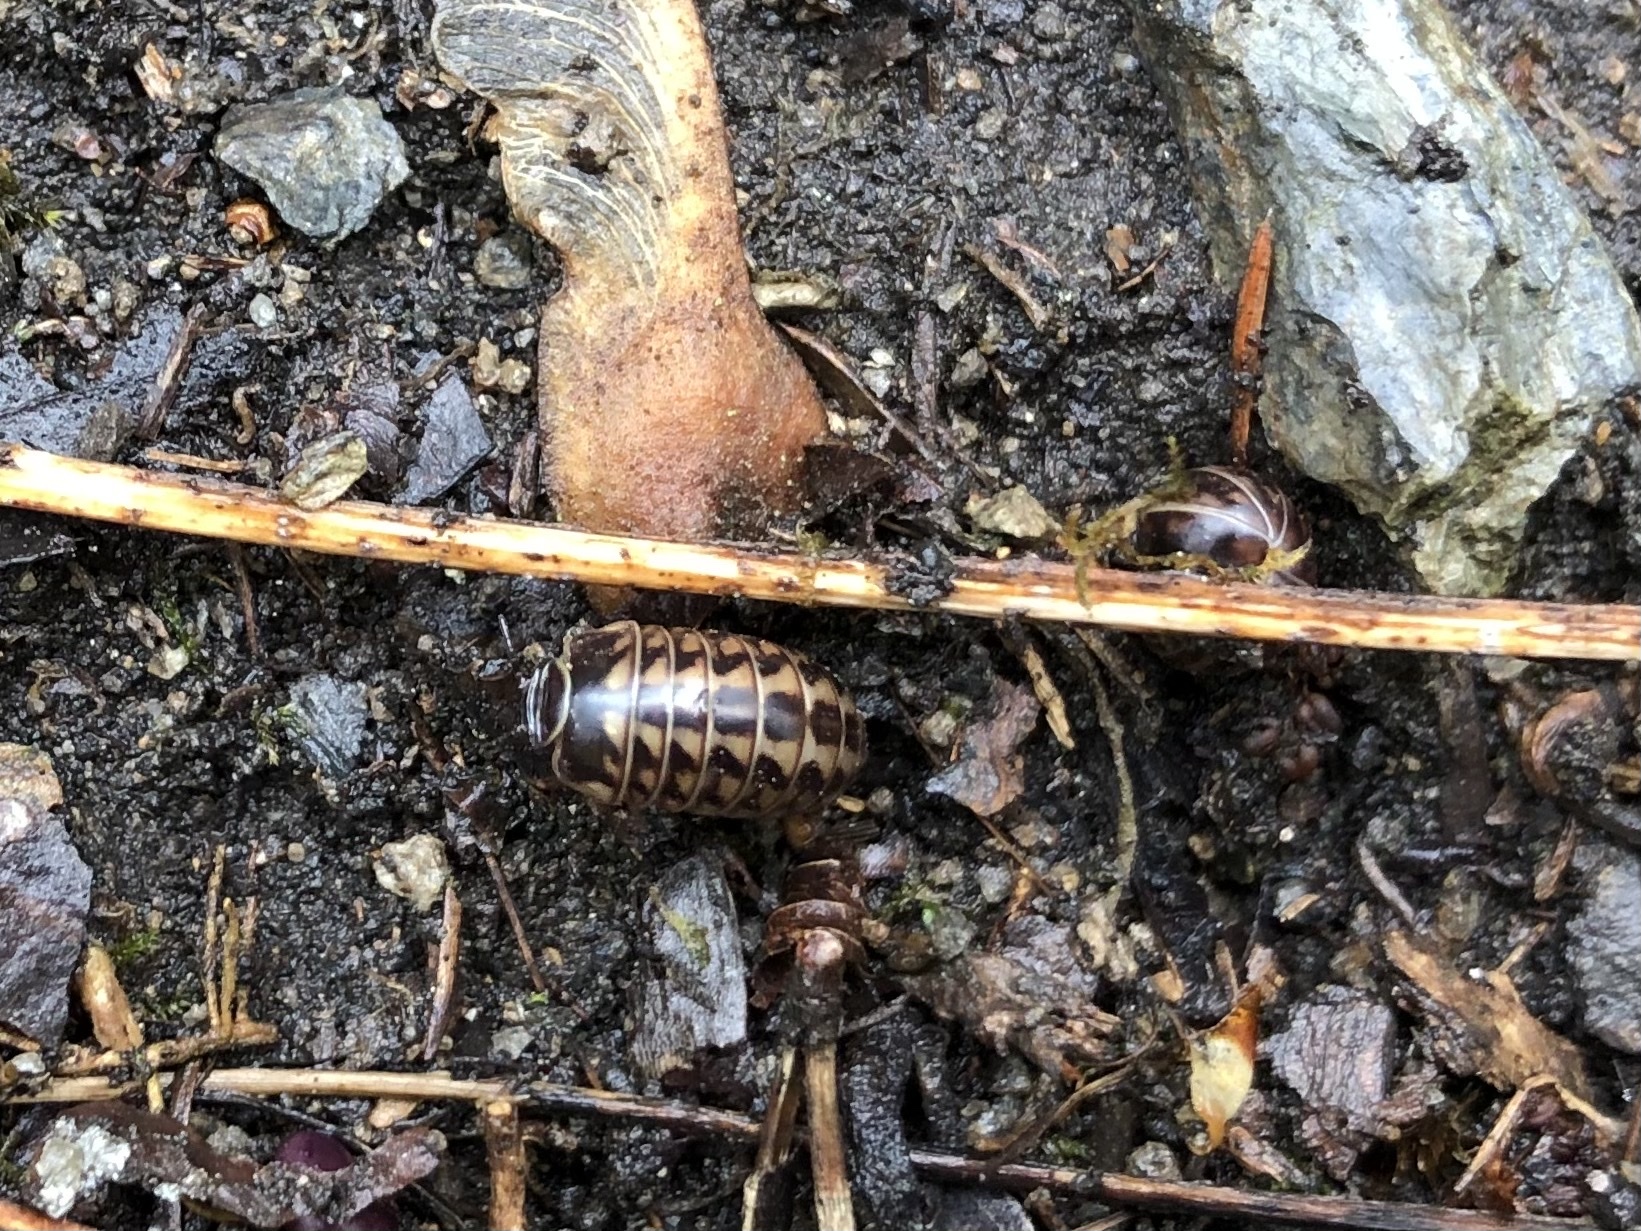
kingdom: Animalia
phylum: Arthropoda
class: Diplopoda
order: Glomerida
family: Glomeridae
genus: Glomeris
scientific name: Glomeris hexasticha
